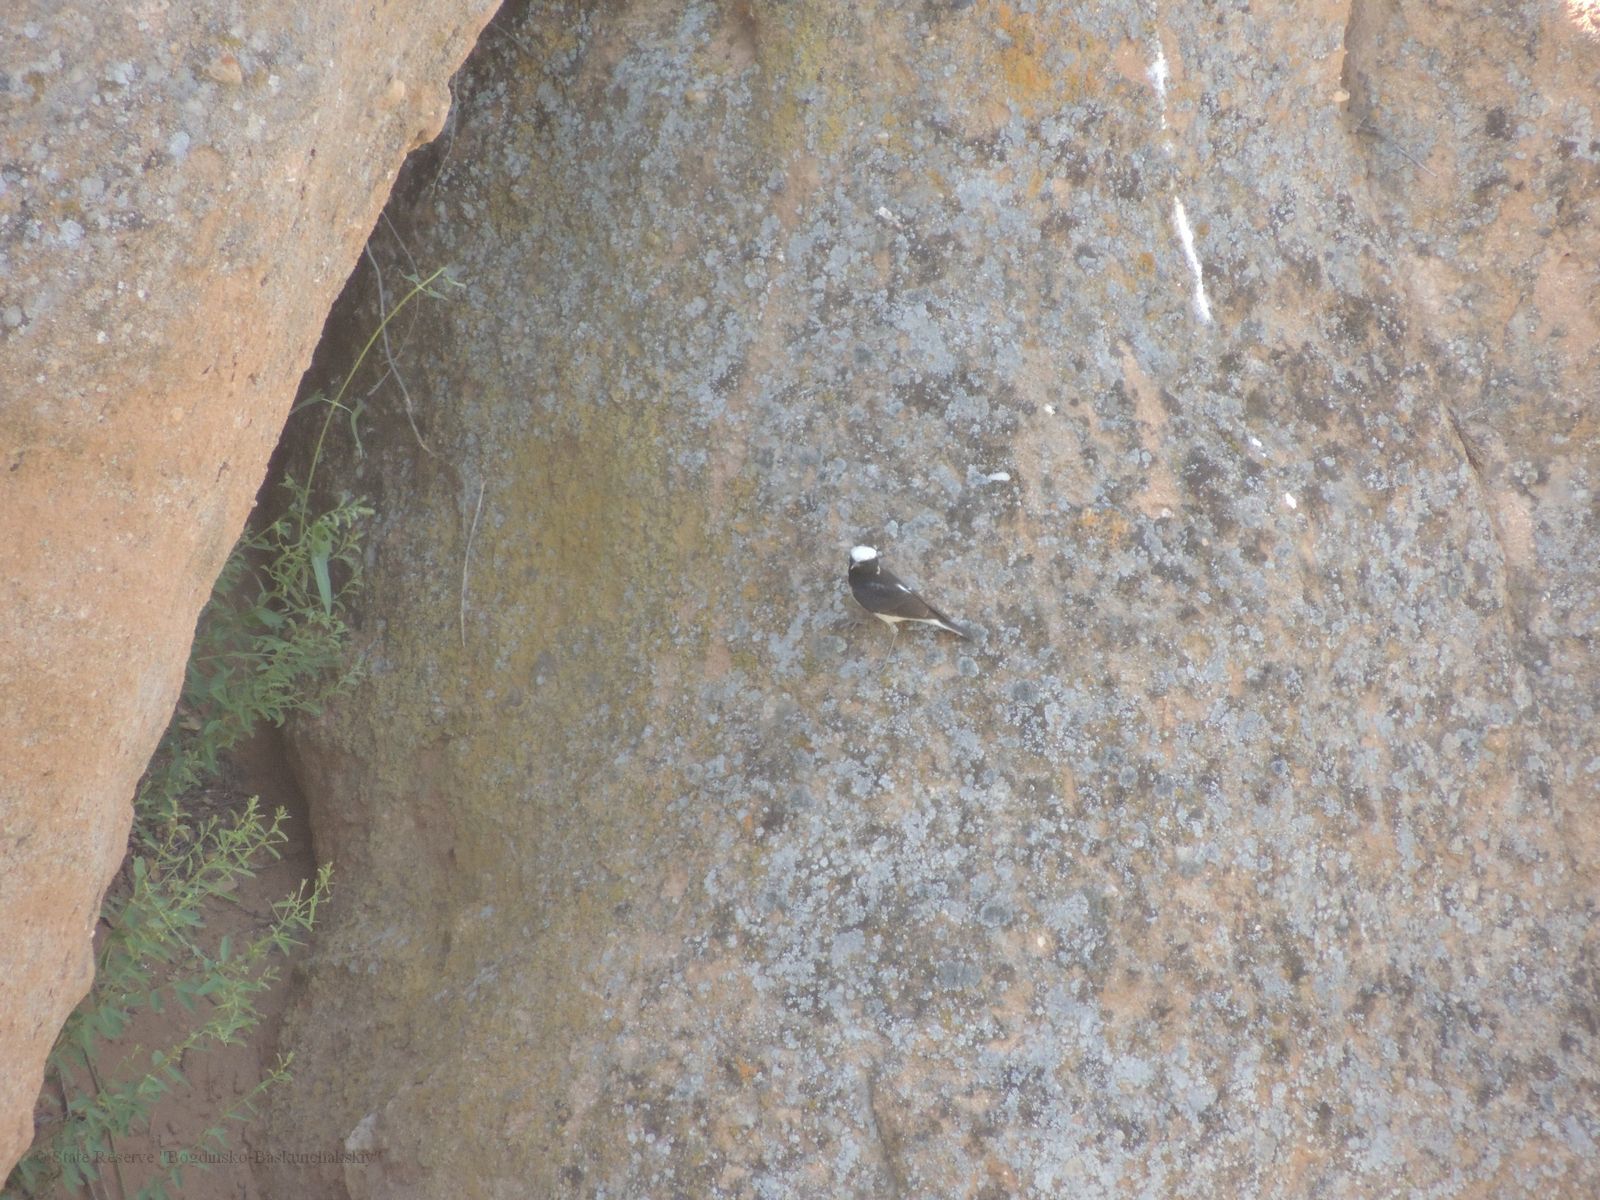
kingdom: Animalia
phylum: Chordata
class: Aves
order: Passeriformes
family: Muscicapidae
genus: Oenanthe
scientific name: Oenanthe pleschanka
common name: Pied wheatear
